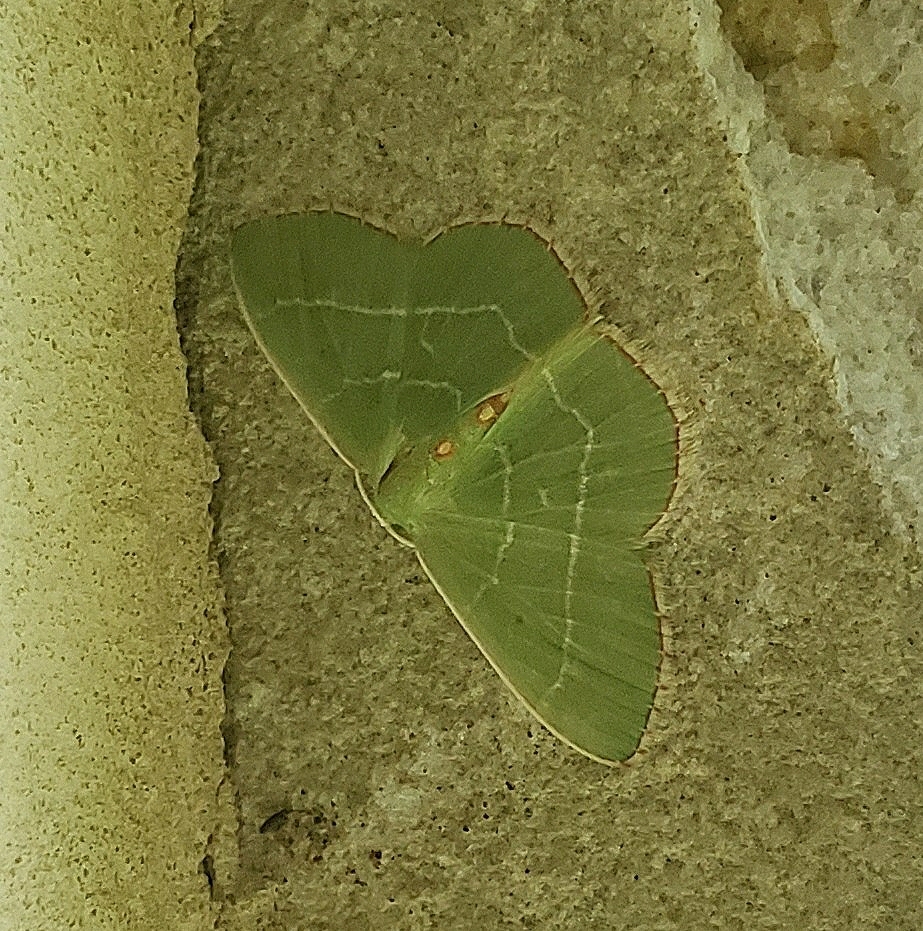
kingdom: Animalia
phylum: Arthropoda
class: Insecta
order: Lepidoptera
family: Geometridae
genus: Nemoria
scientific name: Nemoria bistriaria
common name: Red-fringed emerald
